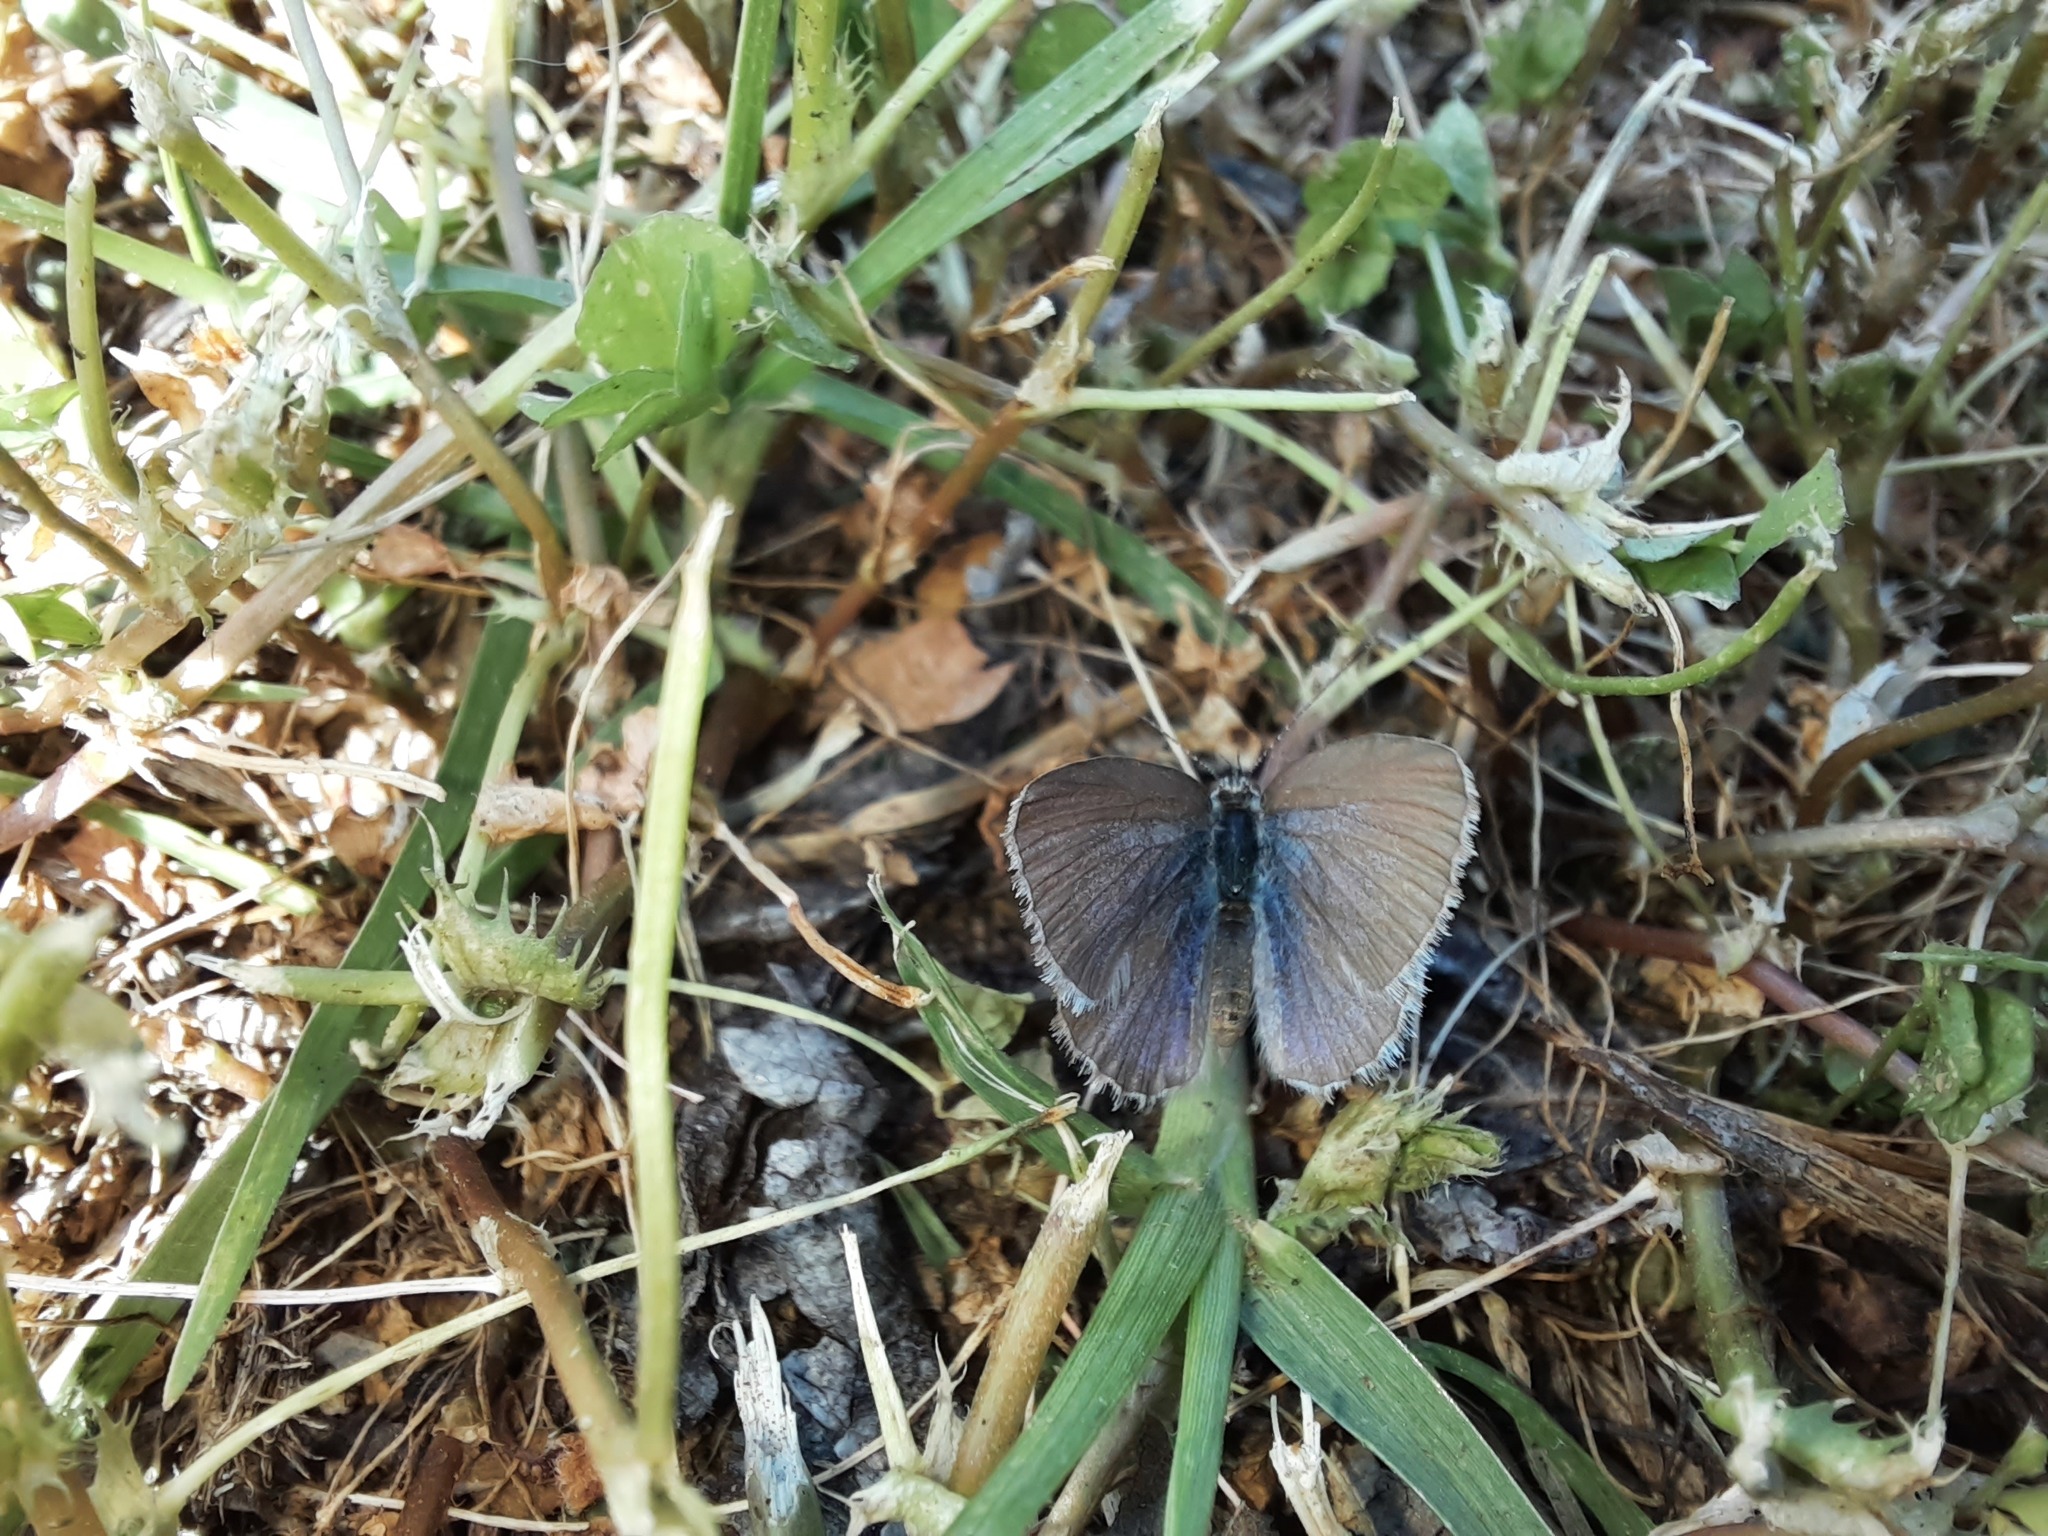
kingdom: Animalia
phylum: Arthropoda
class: Insecta
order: Lepidoptera
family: Lycaenidae
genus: Zizina
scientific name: Zizina labradus
